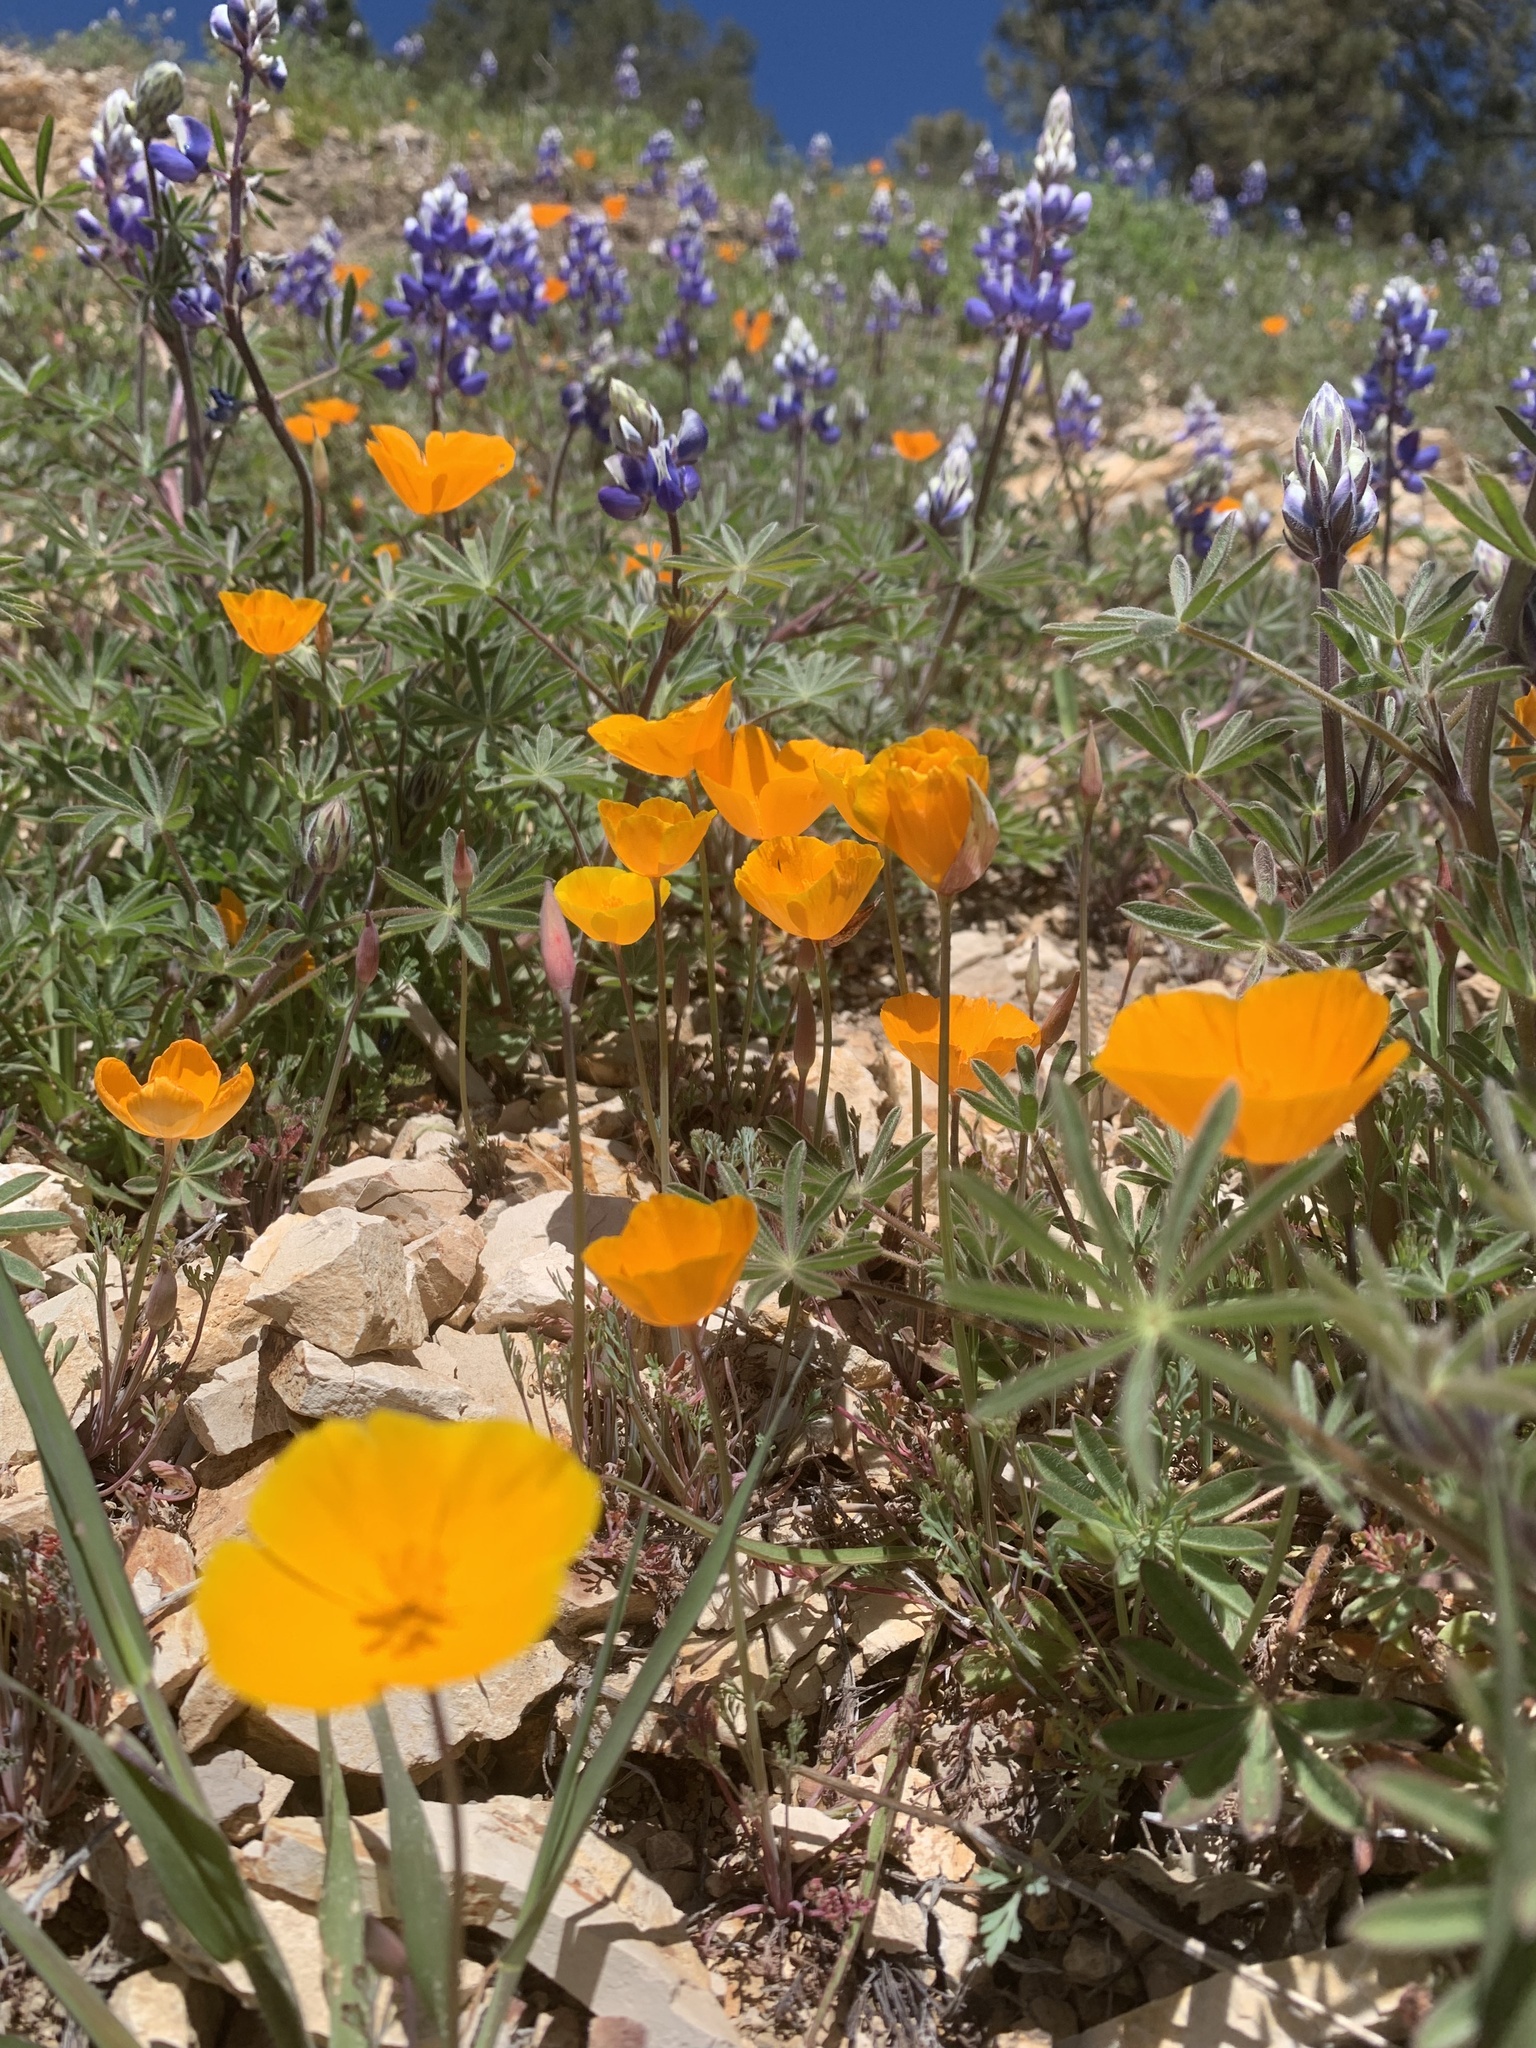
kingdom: Plantae
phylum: Tracheophyta
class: Magnoliopsida
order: Ranunculales
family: Papaveraceae
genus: Eschscholzia
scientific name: Eschscholzia californica
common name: California poppy
